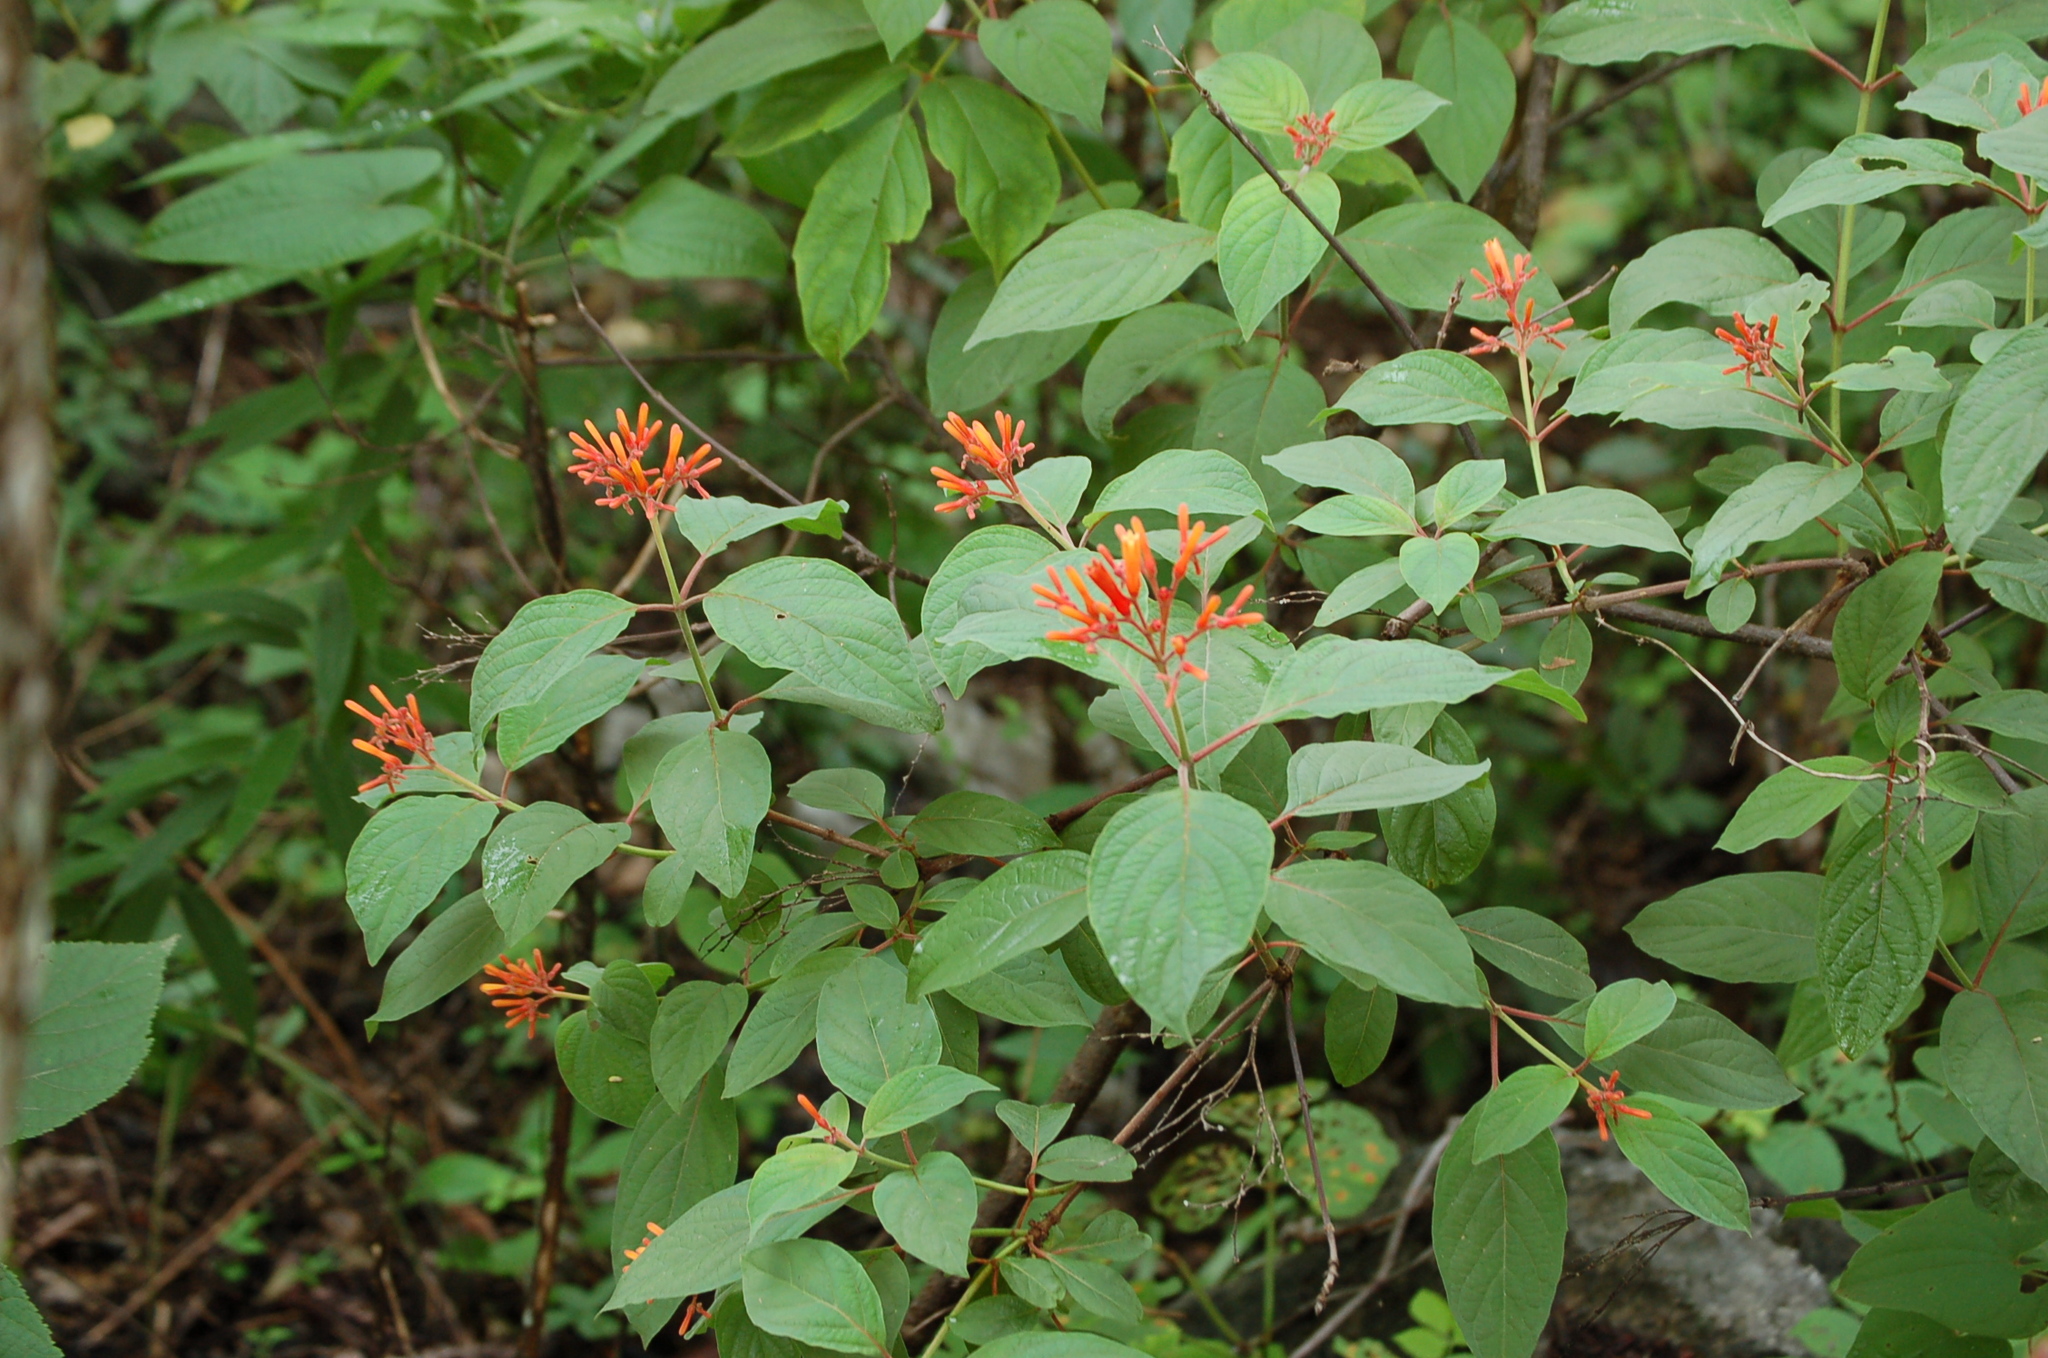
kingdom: Plantae
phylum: Tracheophyta
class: Magnoliopsida
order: Gentianales
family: Rubiaceae
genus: Hamelia
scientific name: Hamelia patens
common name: Redhead
